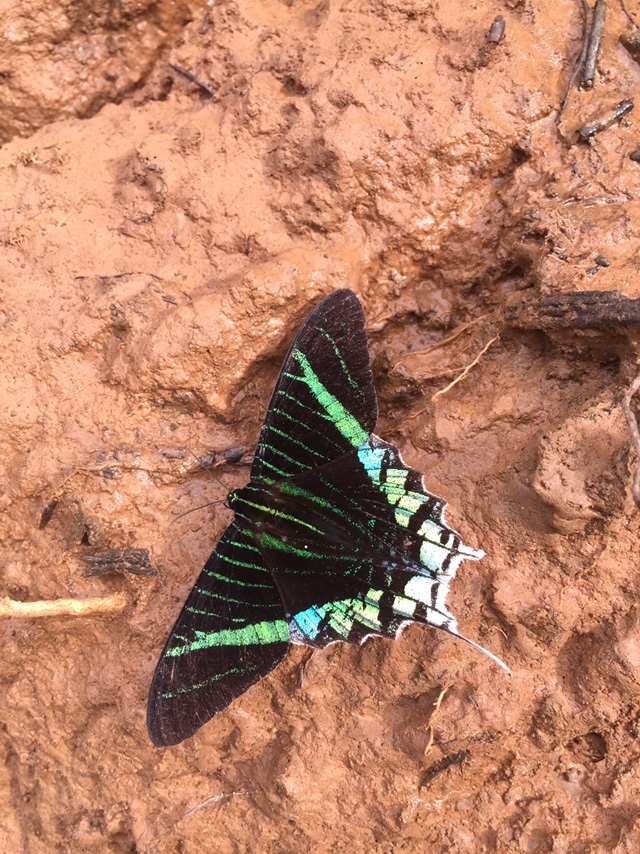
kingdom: Animalia
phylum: Arthropoda
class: Insecta
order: Lepidoptera
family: Uraniidae
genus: Urania
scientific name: Urania leilus
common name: Peacock moth
